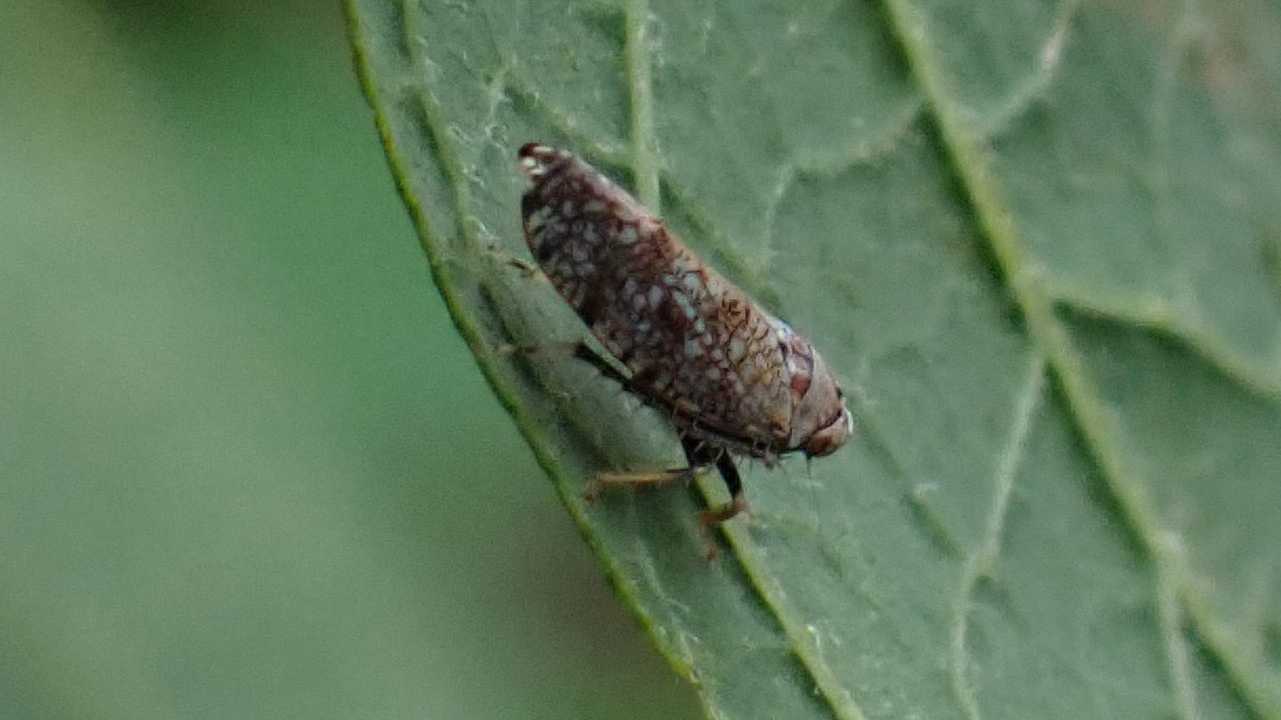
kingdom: Animalia
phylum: Arthropoda
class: Insecta
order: Hemiptera
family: Cicadellidae
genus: Orientus
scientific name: Orientus ishidae
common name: Japanese leafhopper
